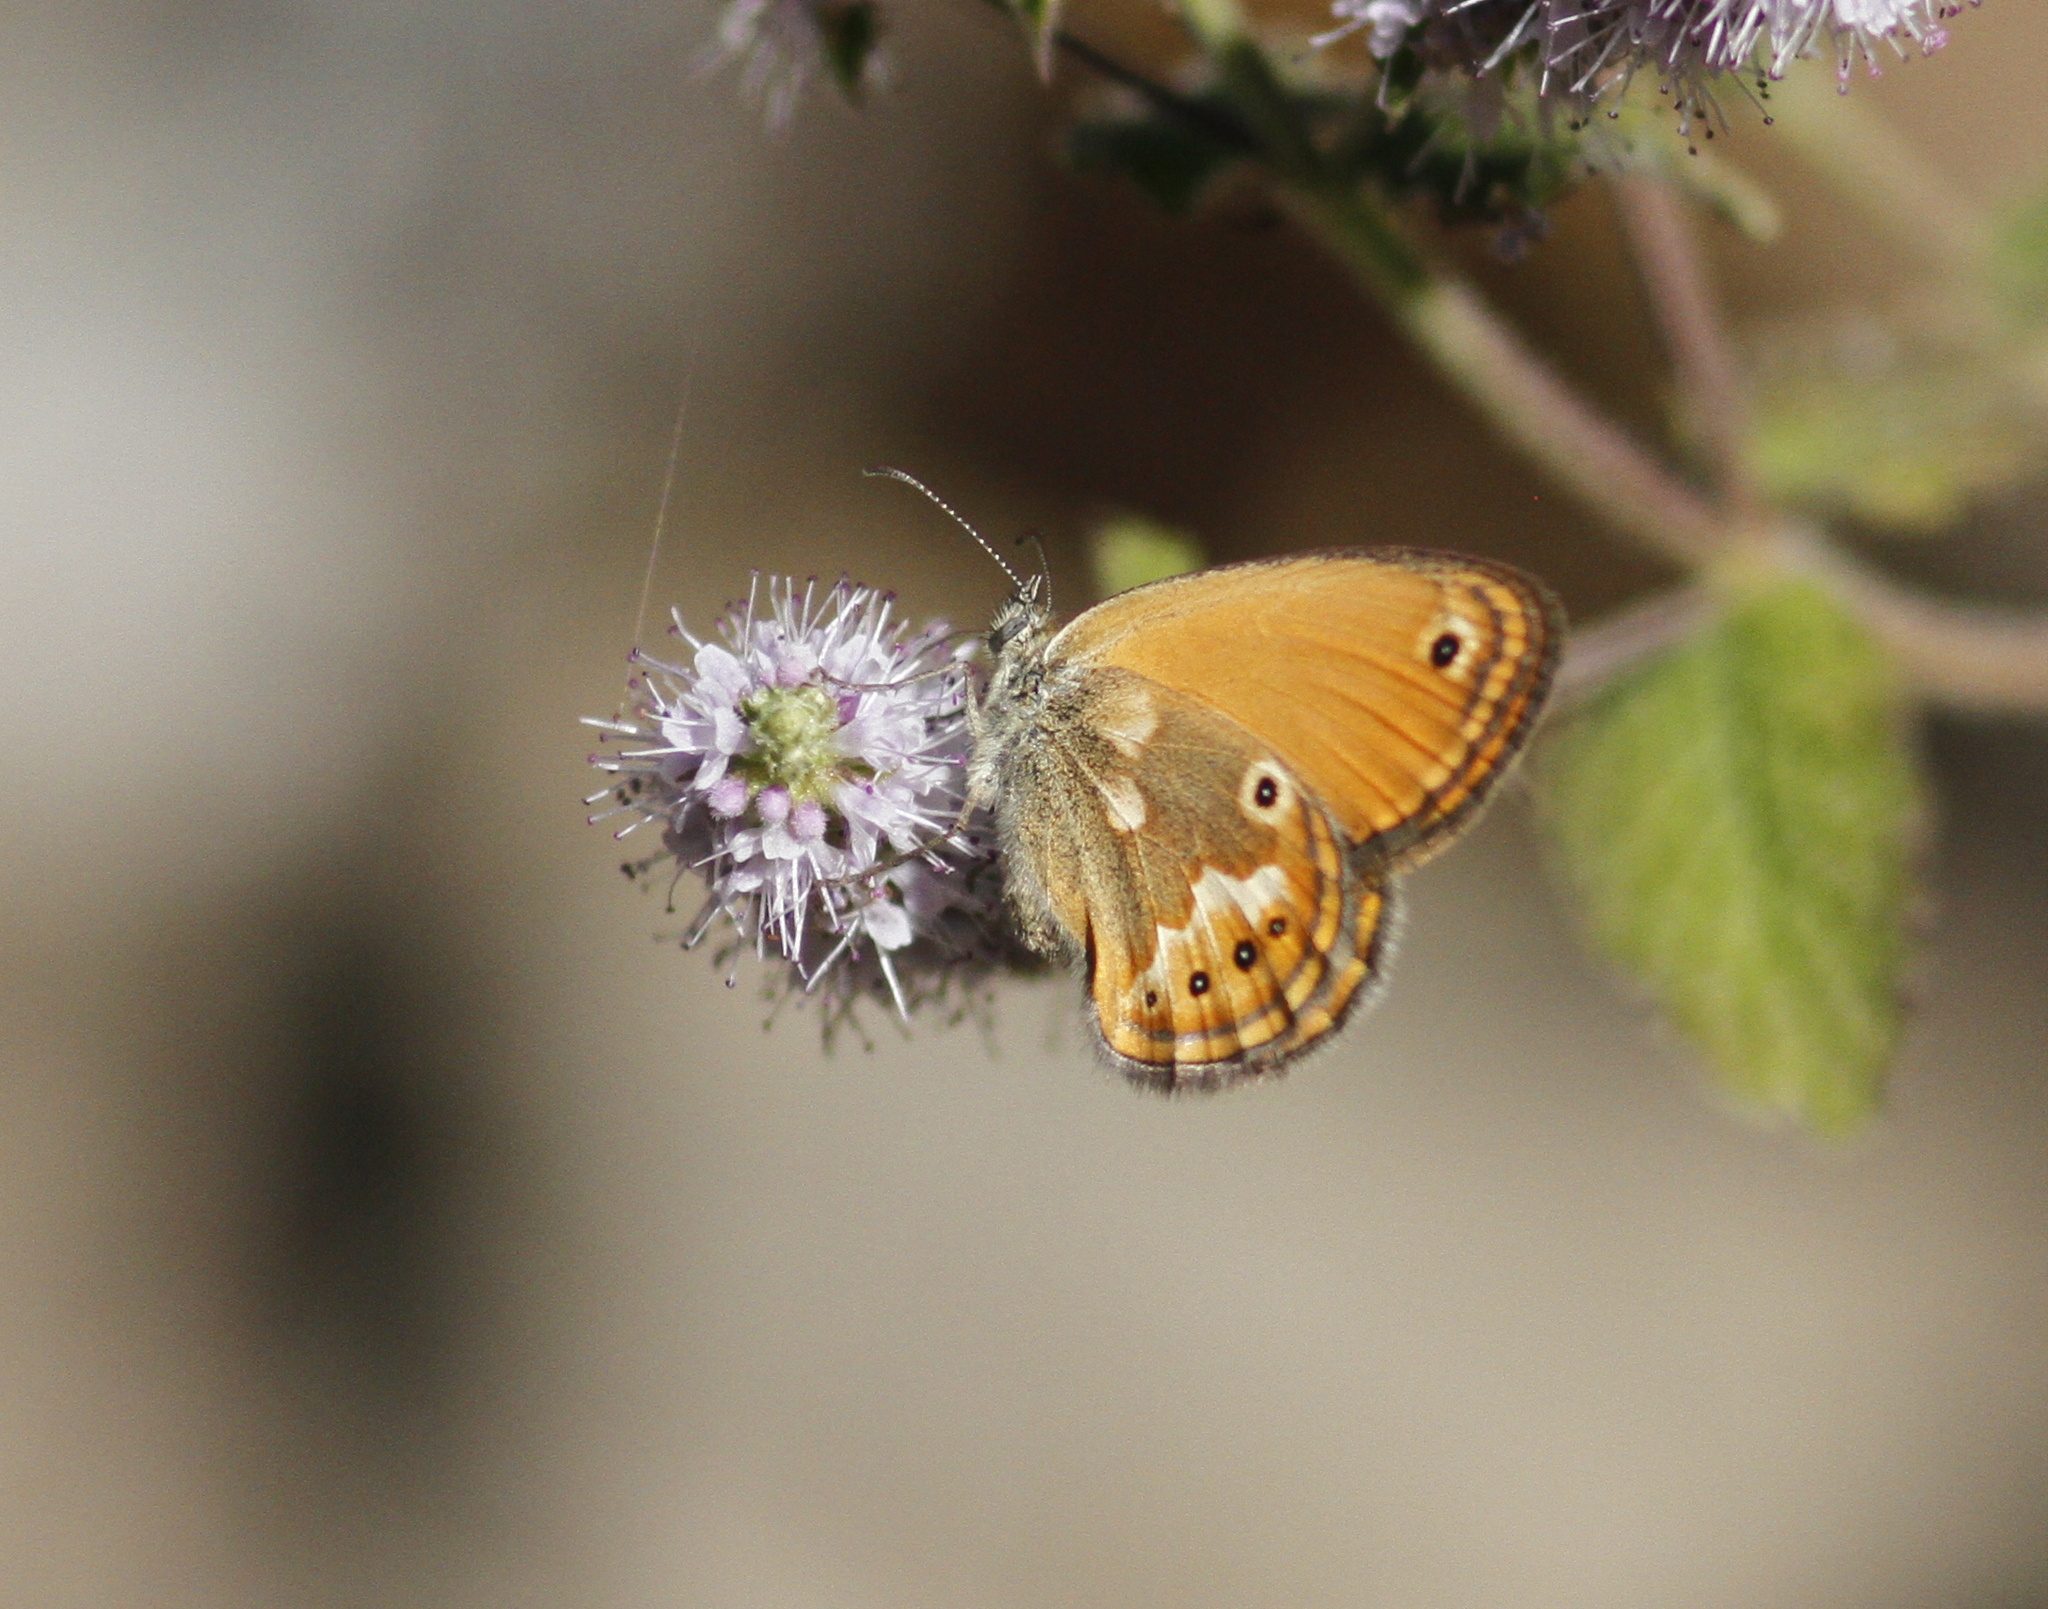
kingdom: Animalia
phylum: Arthropoda
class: Insecta
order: Lepidoptera
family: Nymphalidae
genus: Coenonympha
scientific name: Coenonympha corinna
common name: Corsican heath
